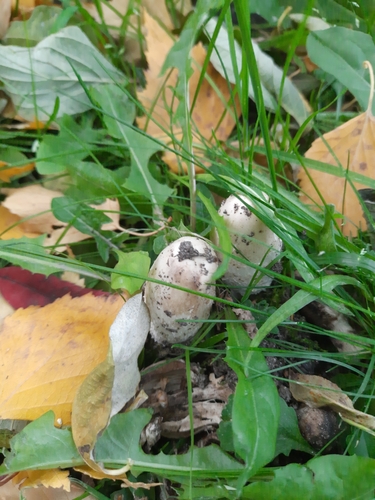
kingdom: Fungi
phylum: Basidiomycota
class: Agaricomycetes
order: Agaricales
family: Agaricaceae
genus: Coprinus
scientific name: Coprinus comatus
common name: Lawyer's wig
